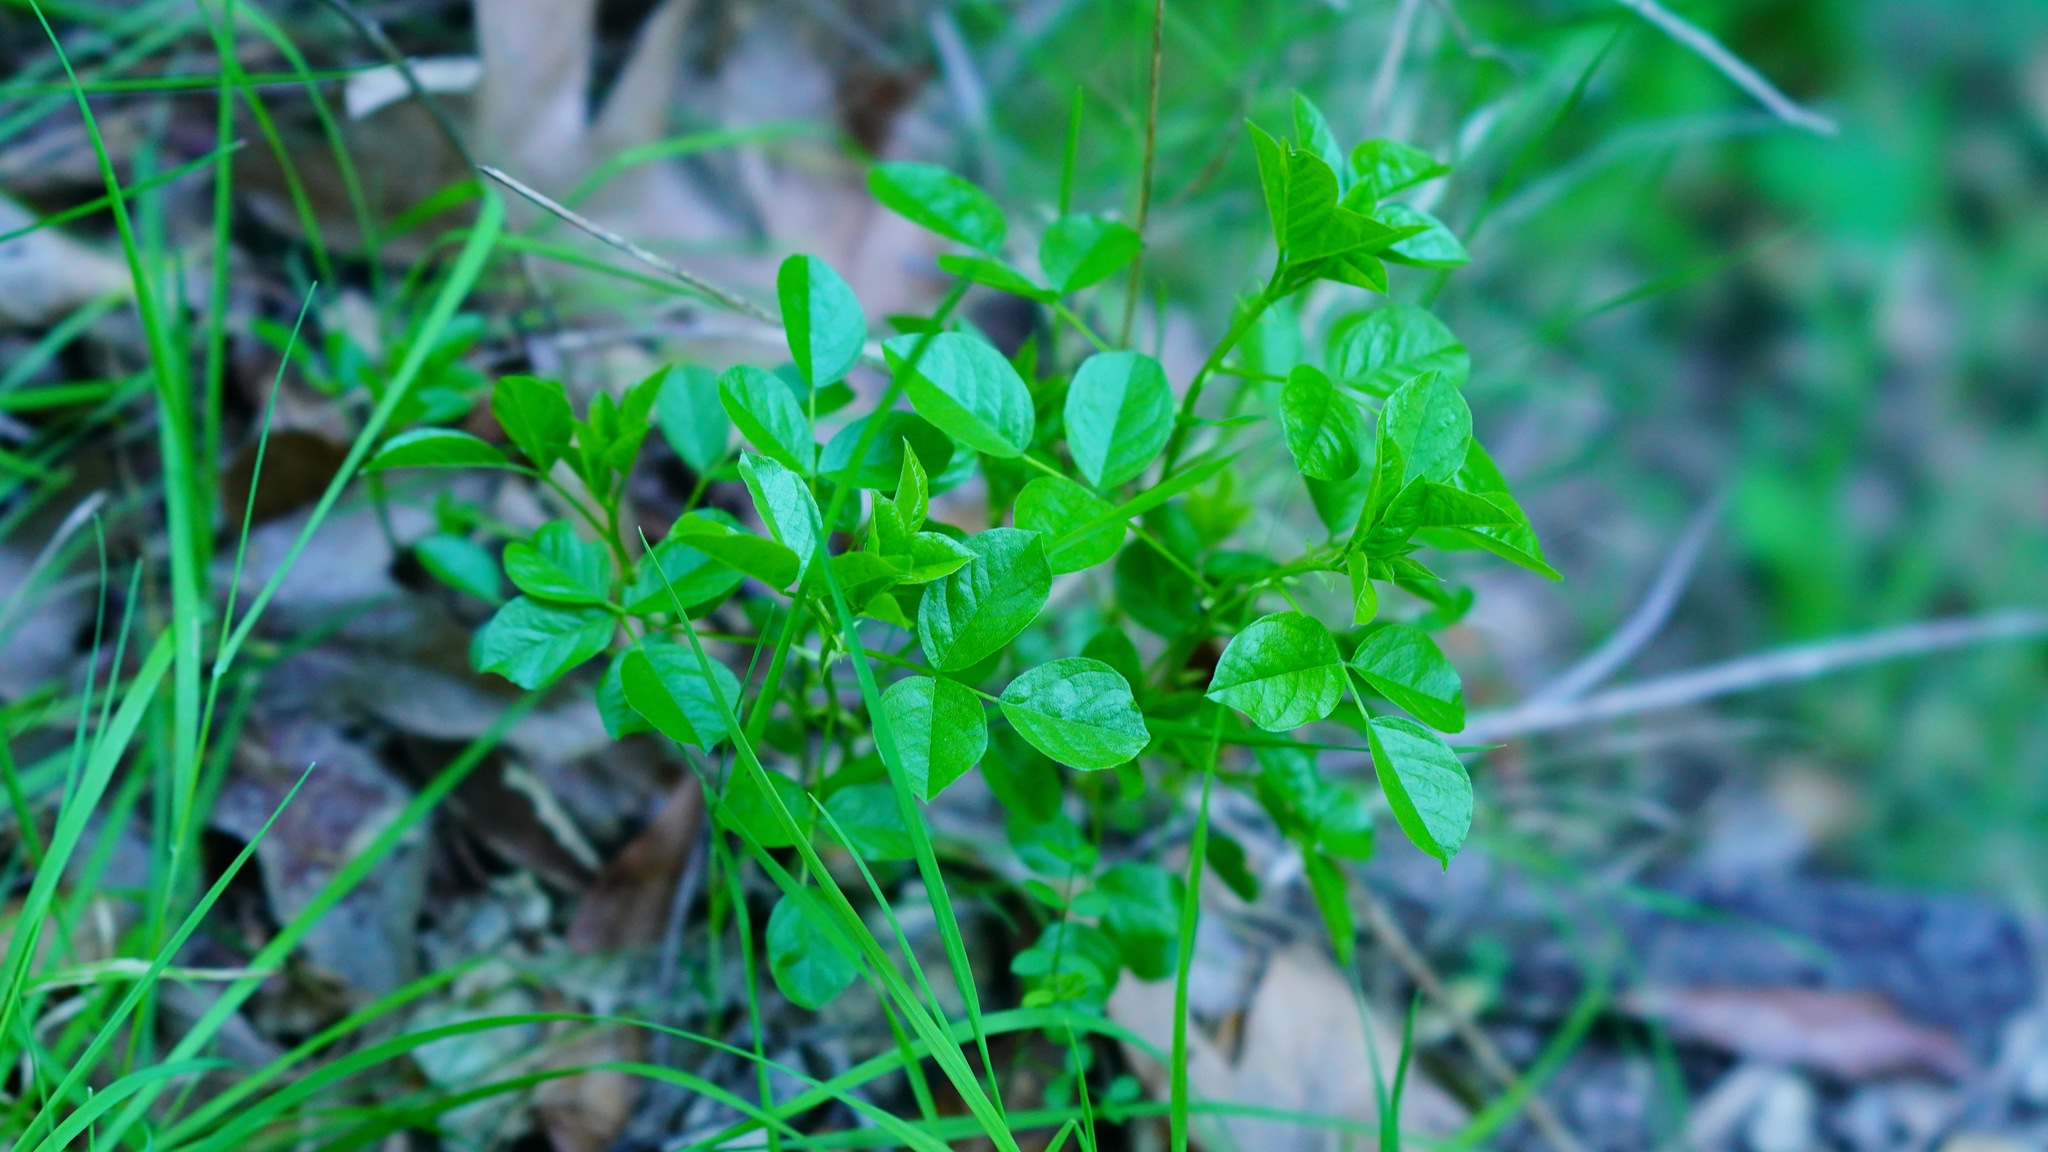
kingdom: Plantae
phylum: Tracheophyta
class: Magnoliopsida
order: Fabales
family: Fabaceae
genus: Rupertia
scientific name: Rupertia physodes
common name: California-tea
